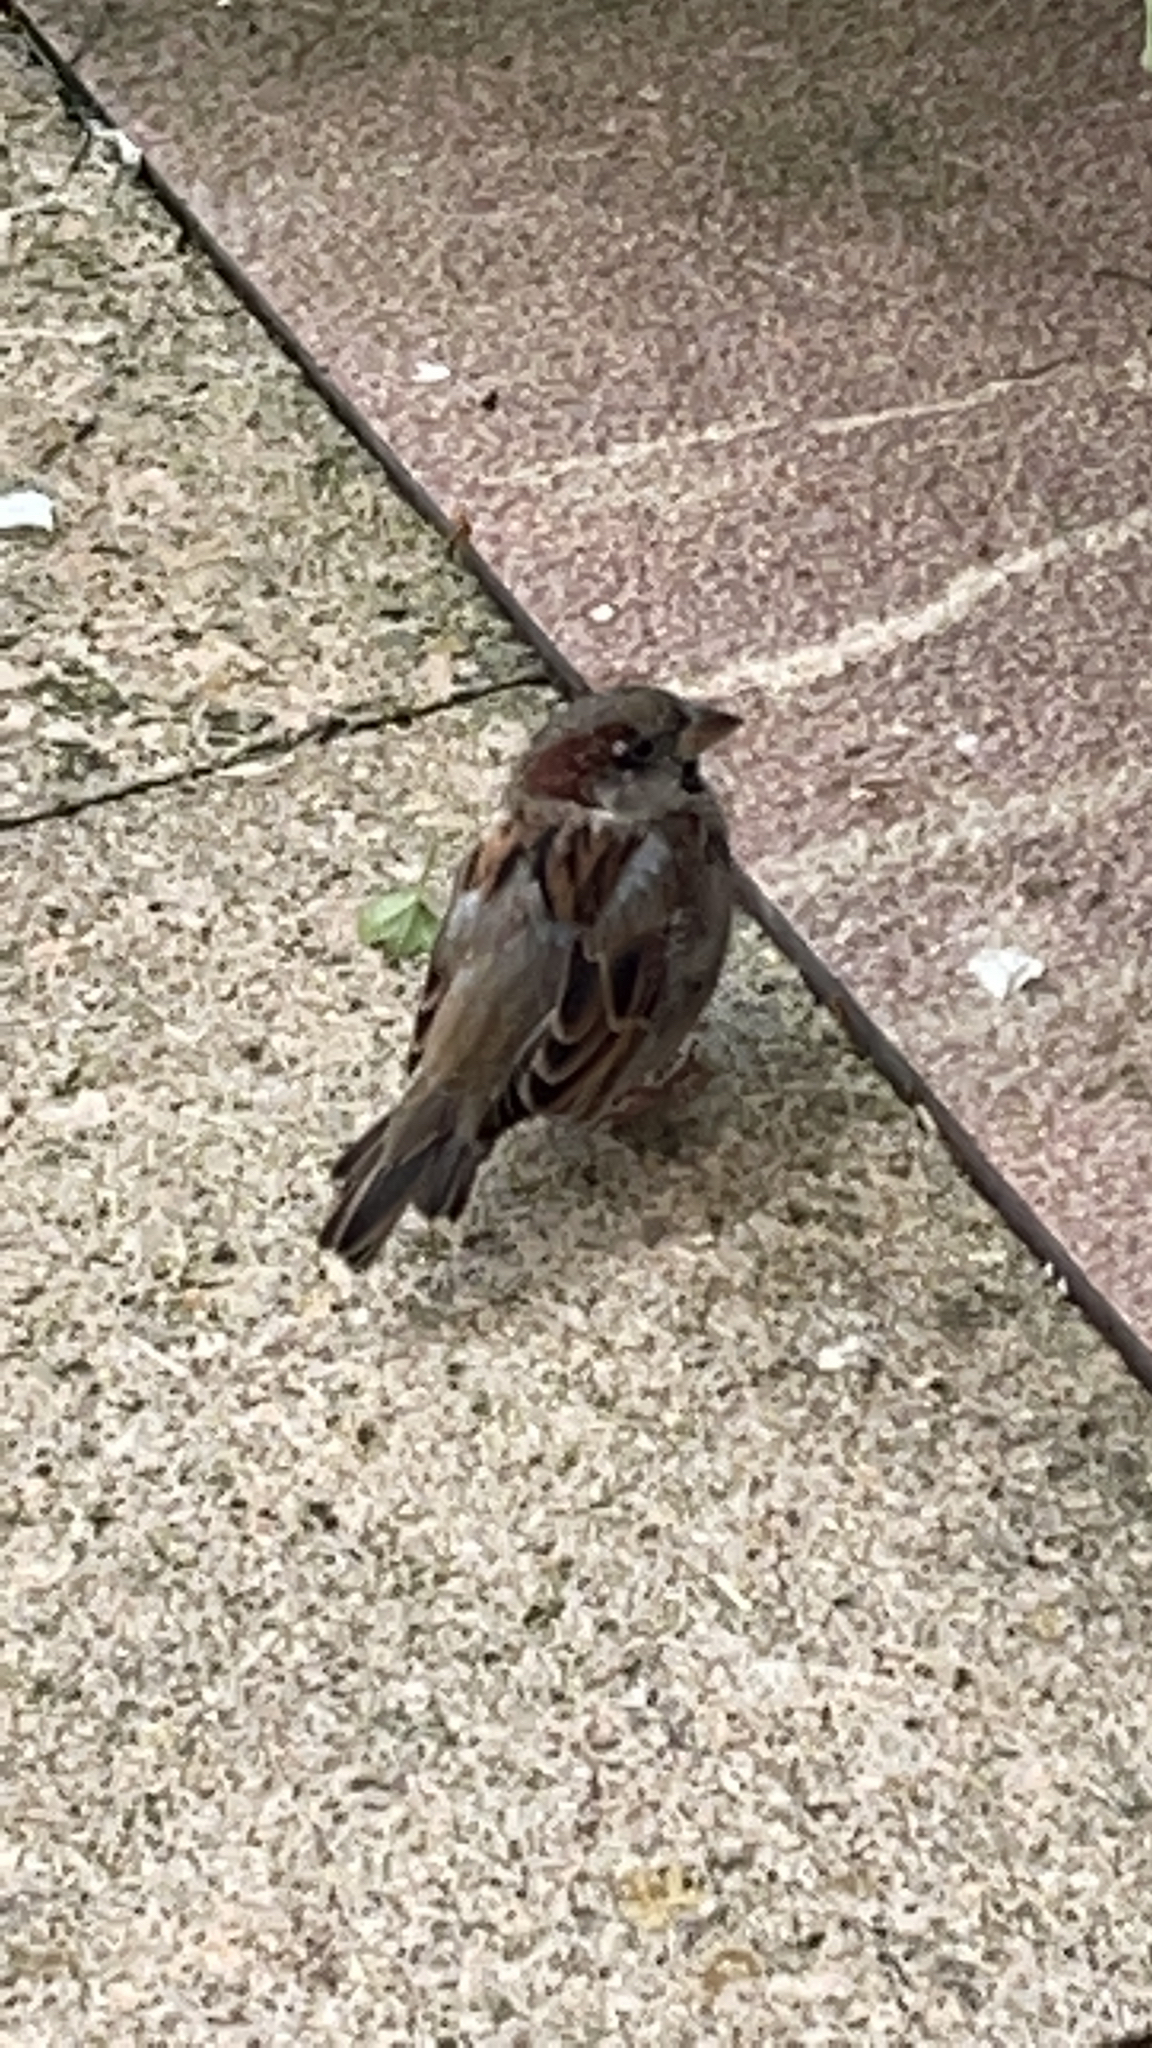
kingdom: Animalia
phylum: Chordata
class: Aves
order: Passeriformes
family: Passeridae
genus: Passer
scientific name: Passer domesticus
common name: House sparrow
